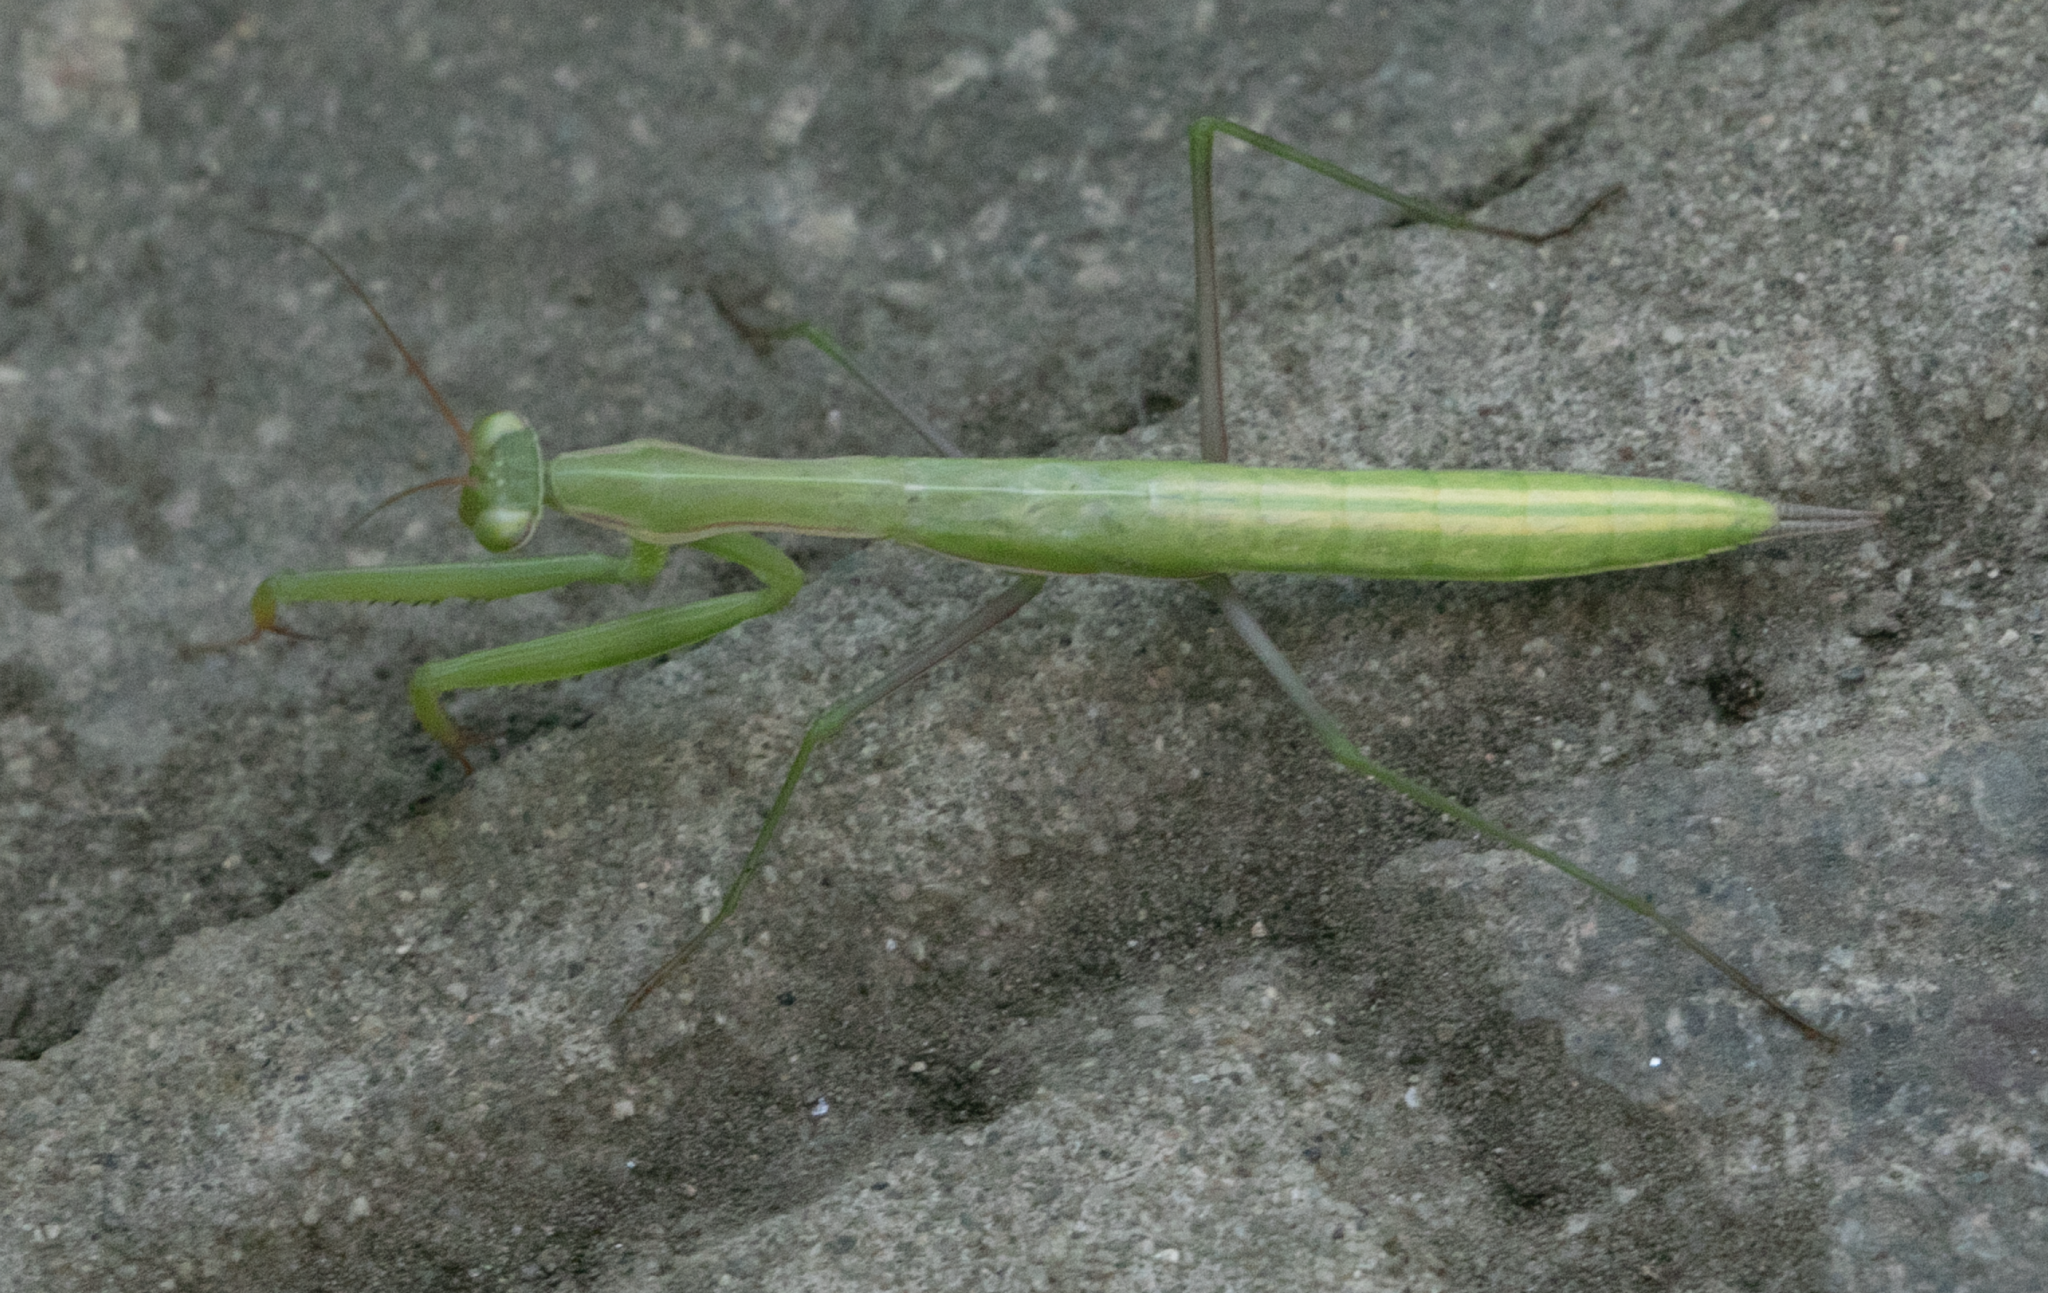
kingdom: Animalia
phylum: Arthropoda
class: Insecta
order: Mantodea
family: Mantidae
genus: Mantis
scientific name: Mantis religiosa
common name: Praying mantis
